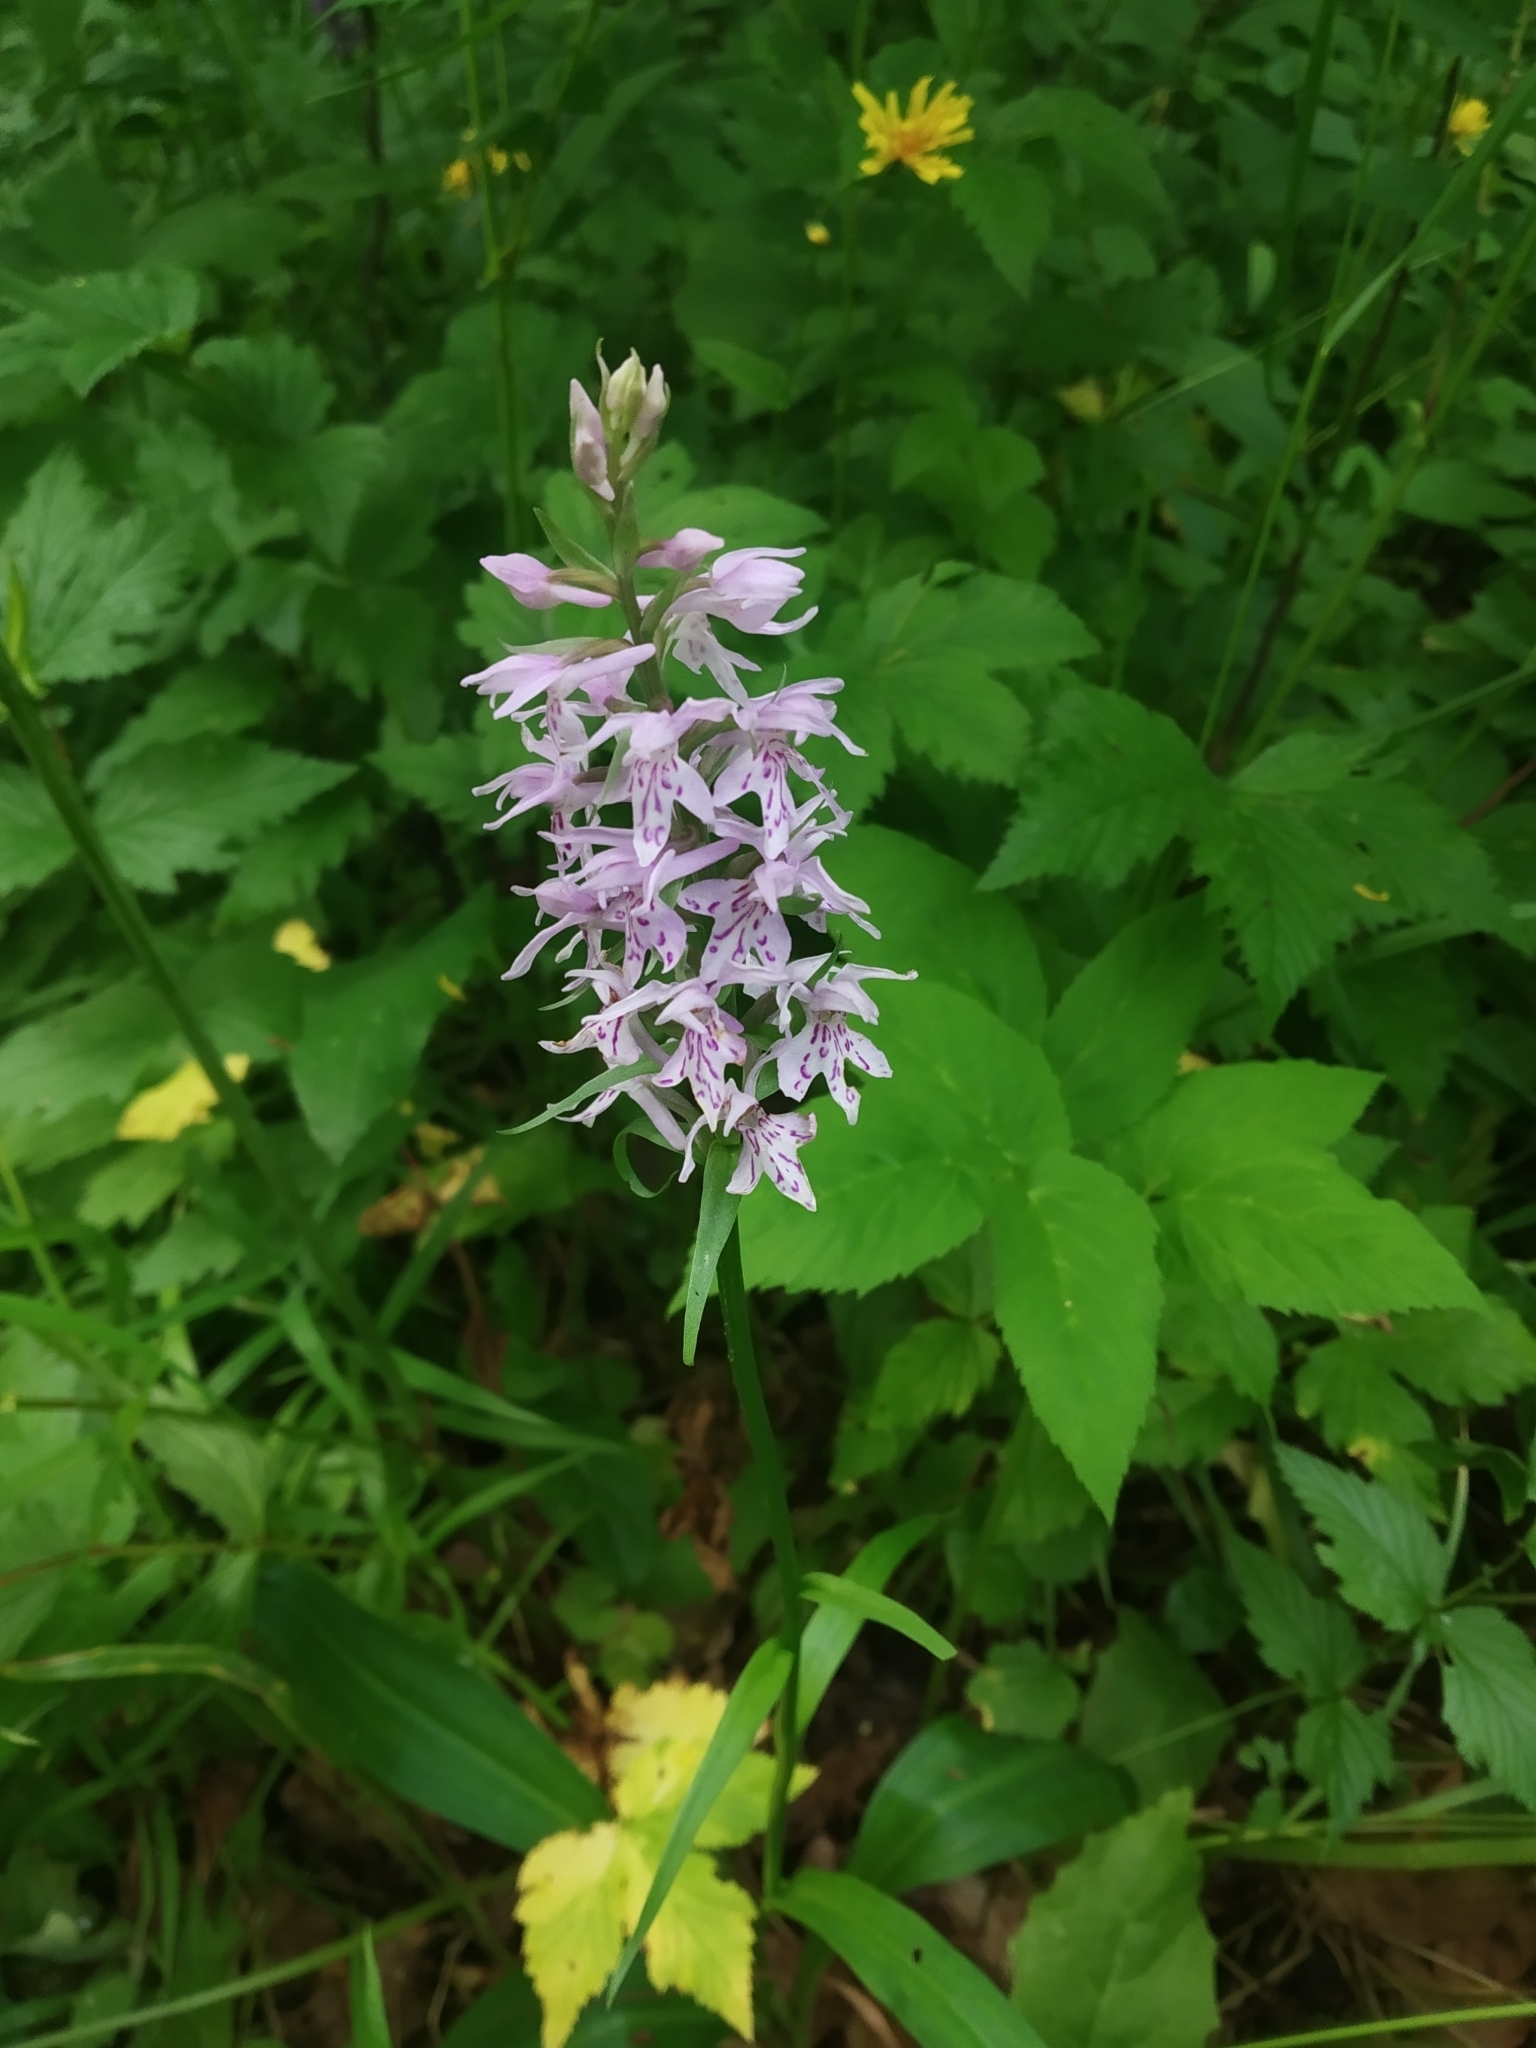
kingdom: Plantae
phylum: Tracheophyta
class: Liliopsida
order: Asparagales
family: Orchidaceae
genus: Dactylorhiza
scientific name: Dactylorhiza maculata
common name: Heath spotted-orchid
